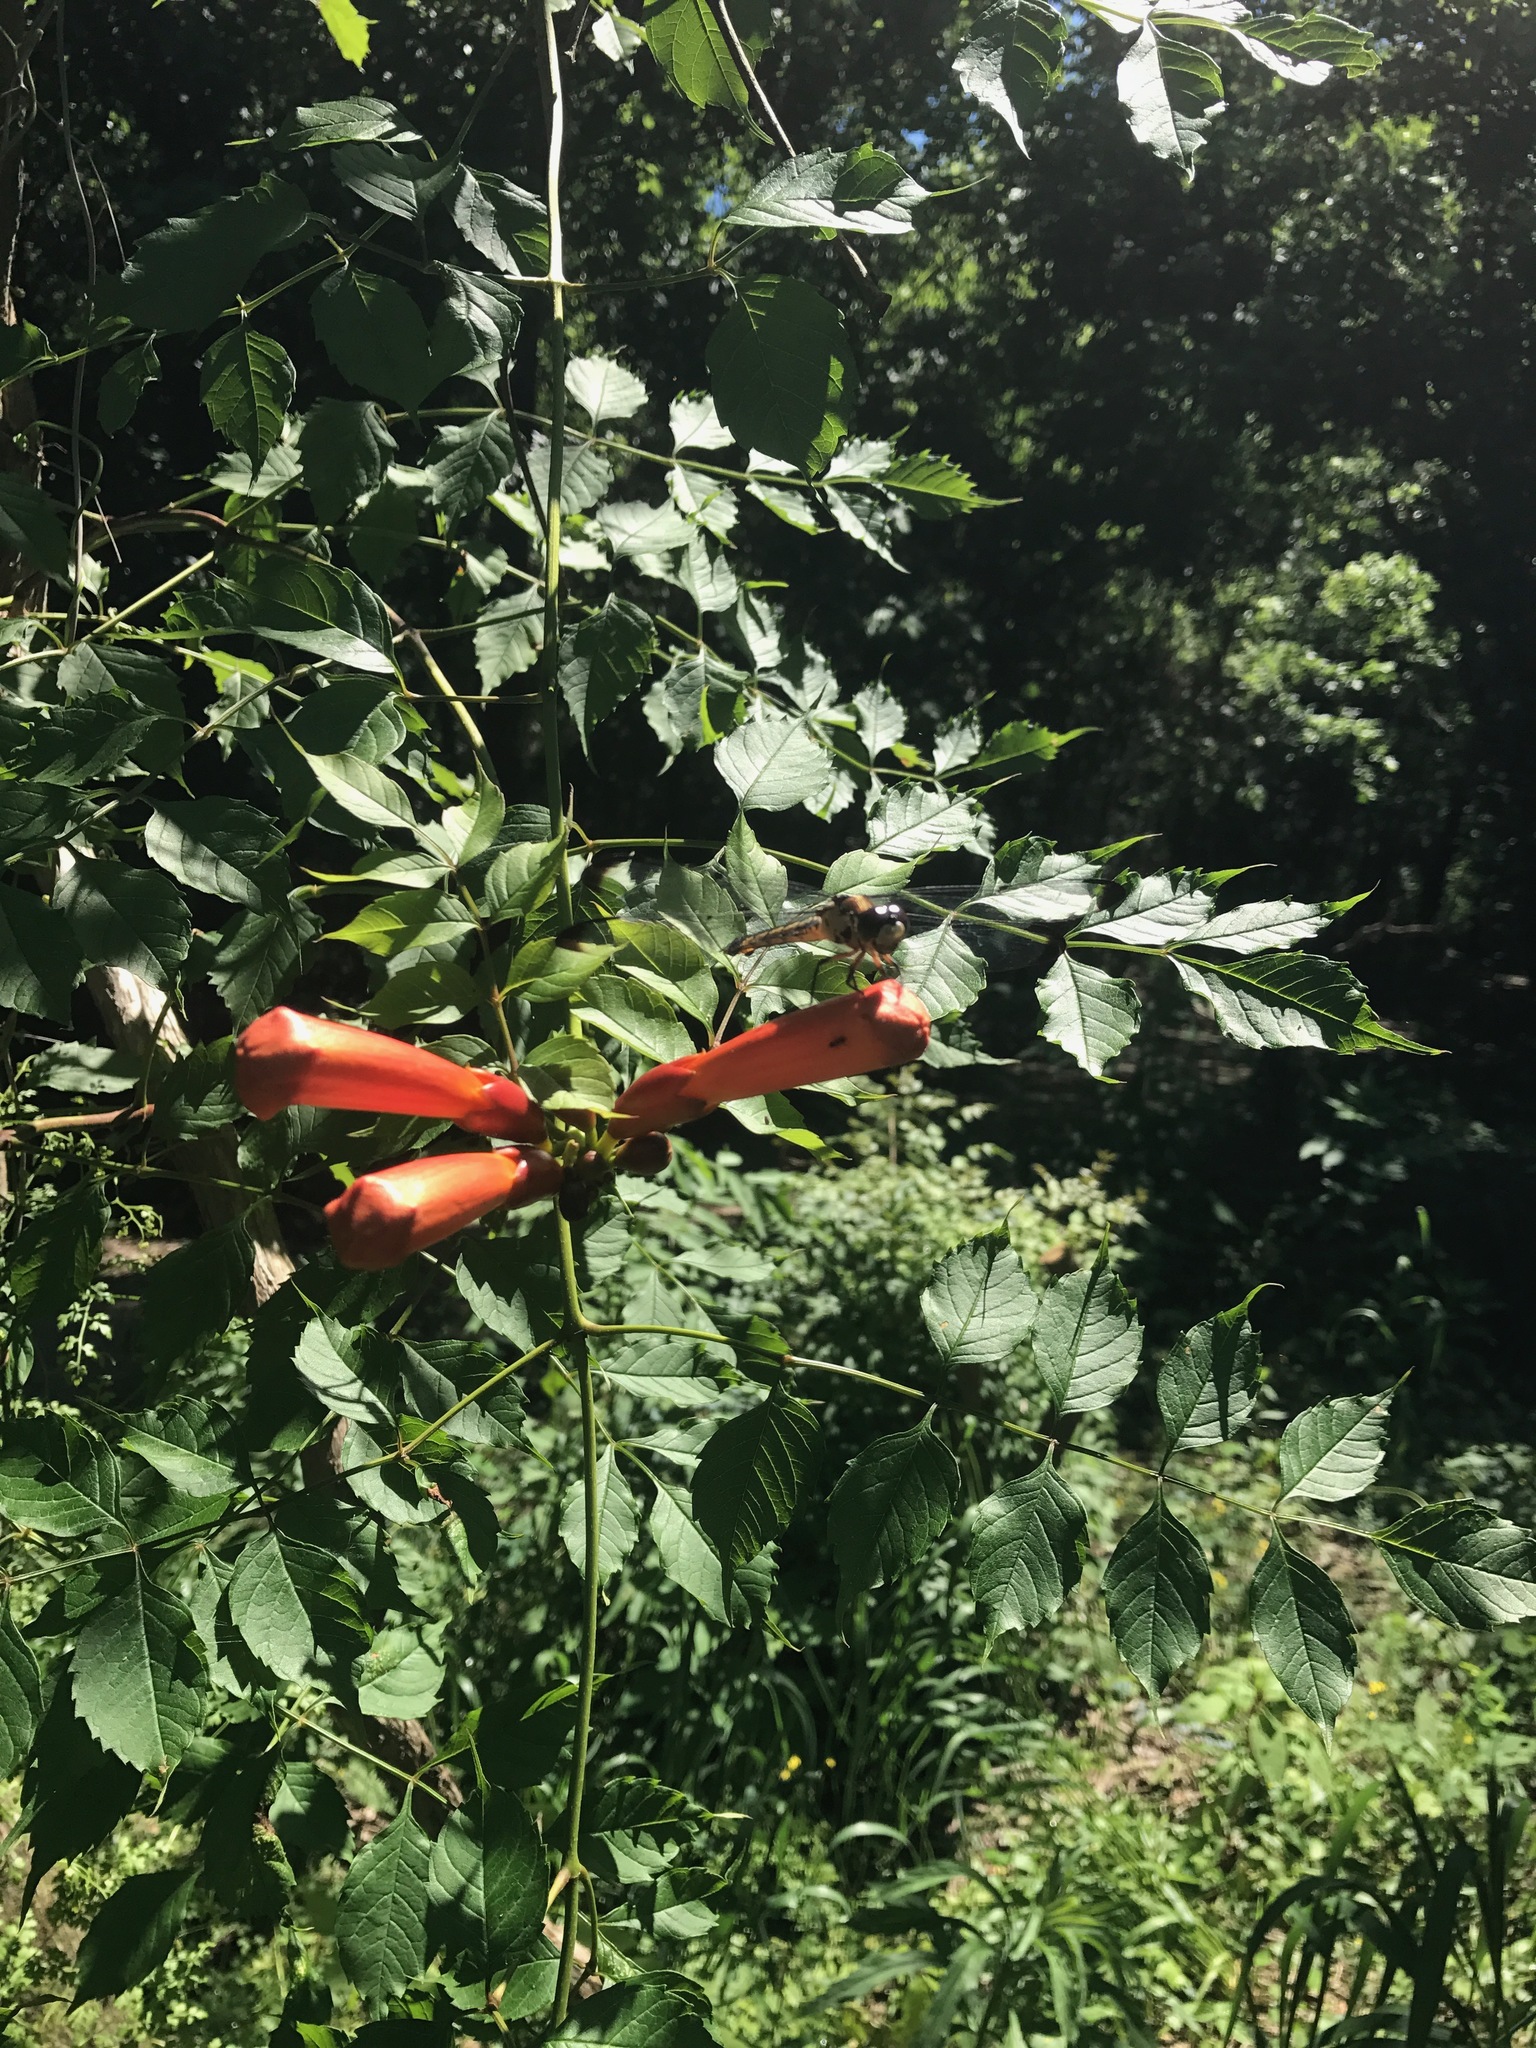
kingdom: Plantae
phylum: Tracheophyta
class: Magnoliopsida
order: Lamiales
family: Bignoniaceae
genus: Campsis
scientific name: Campsis radicans
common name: Trumpet-creeper
